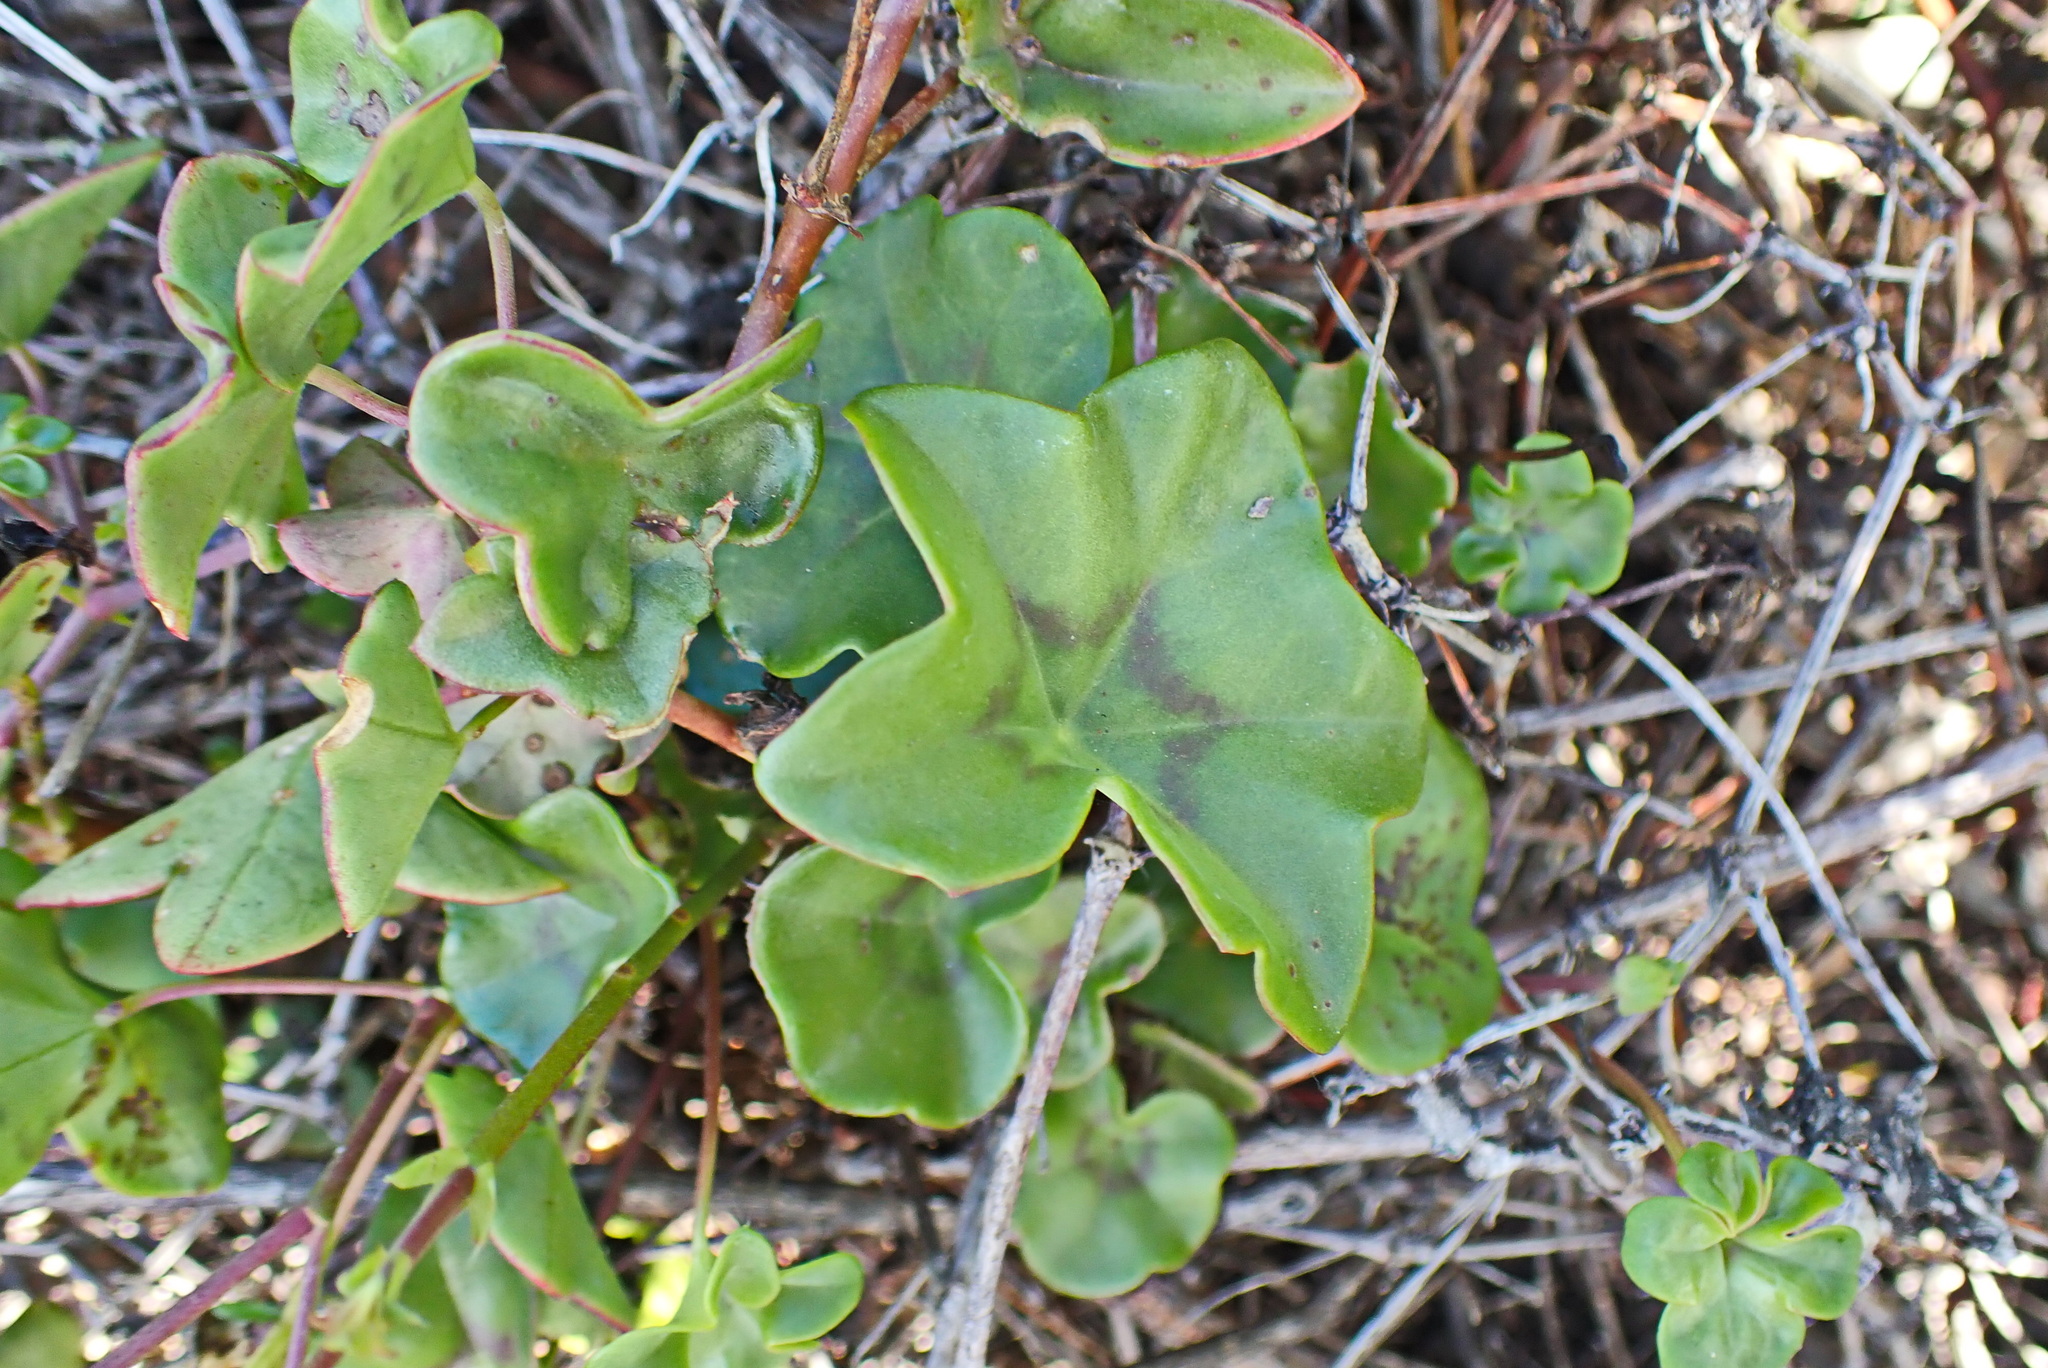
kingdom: Plantae
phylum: Tracheophyta
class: Magnoliopsida
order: Geraniales
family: Geraniaceae
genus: Pelargonium
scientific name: Pelargonium peltatum
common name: Ivyleaf geranium
